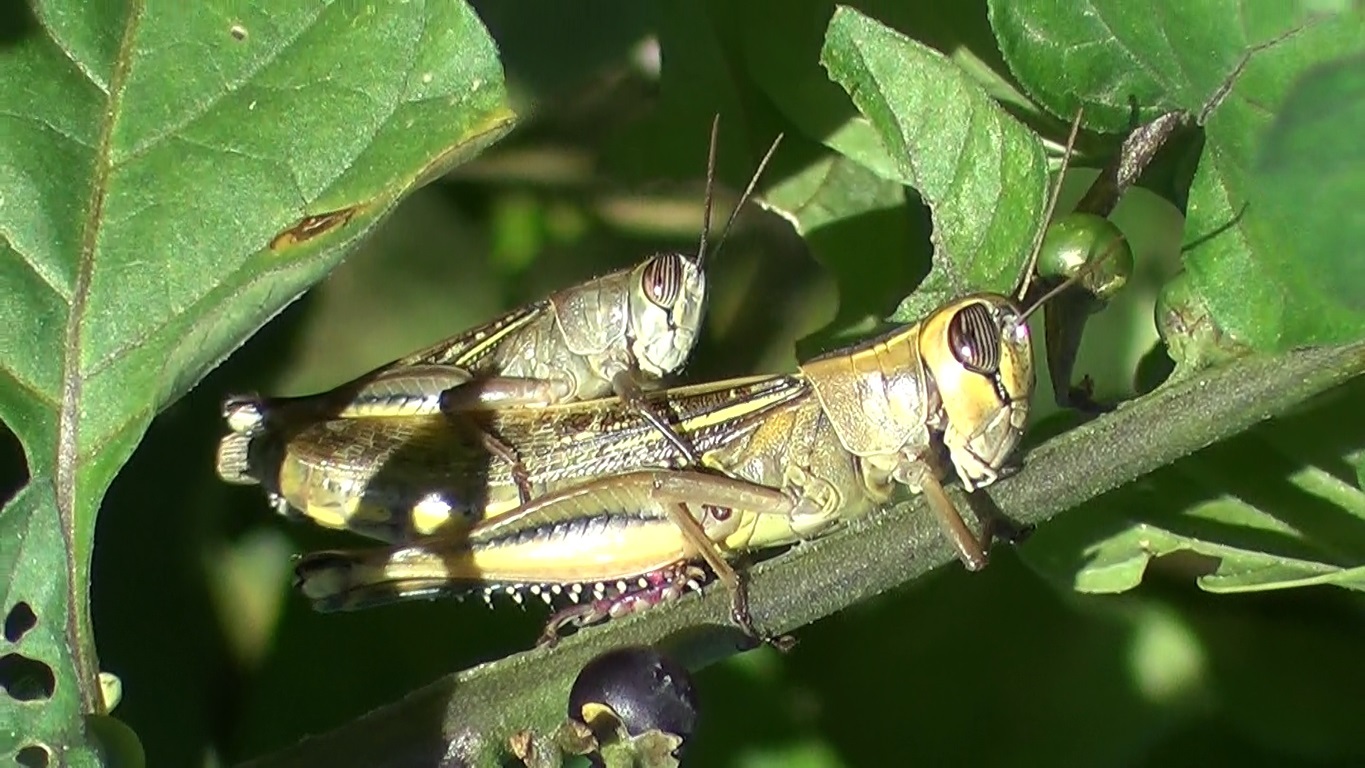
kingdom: Animalia
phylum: Arthropoda
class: Insecta
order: Orthoptera
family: Acrididae
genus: Eyprepocnemis
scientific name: Eyprepocnemis plorans
